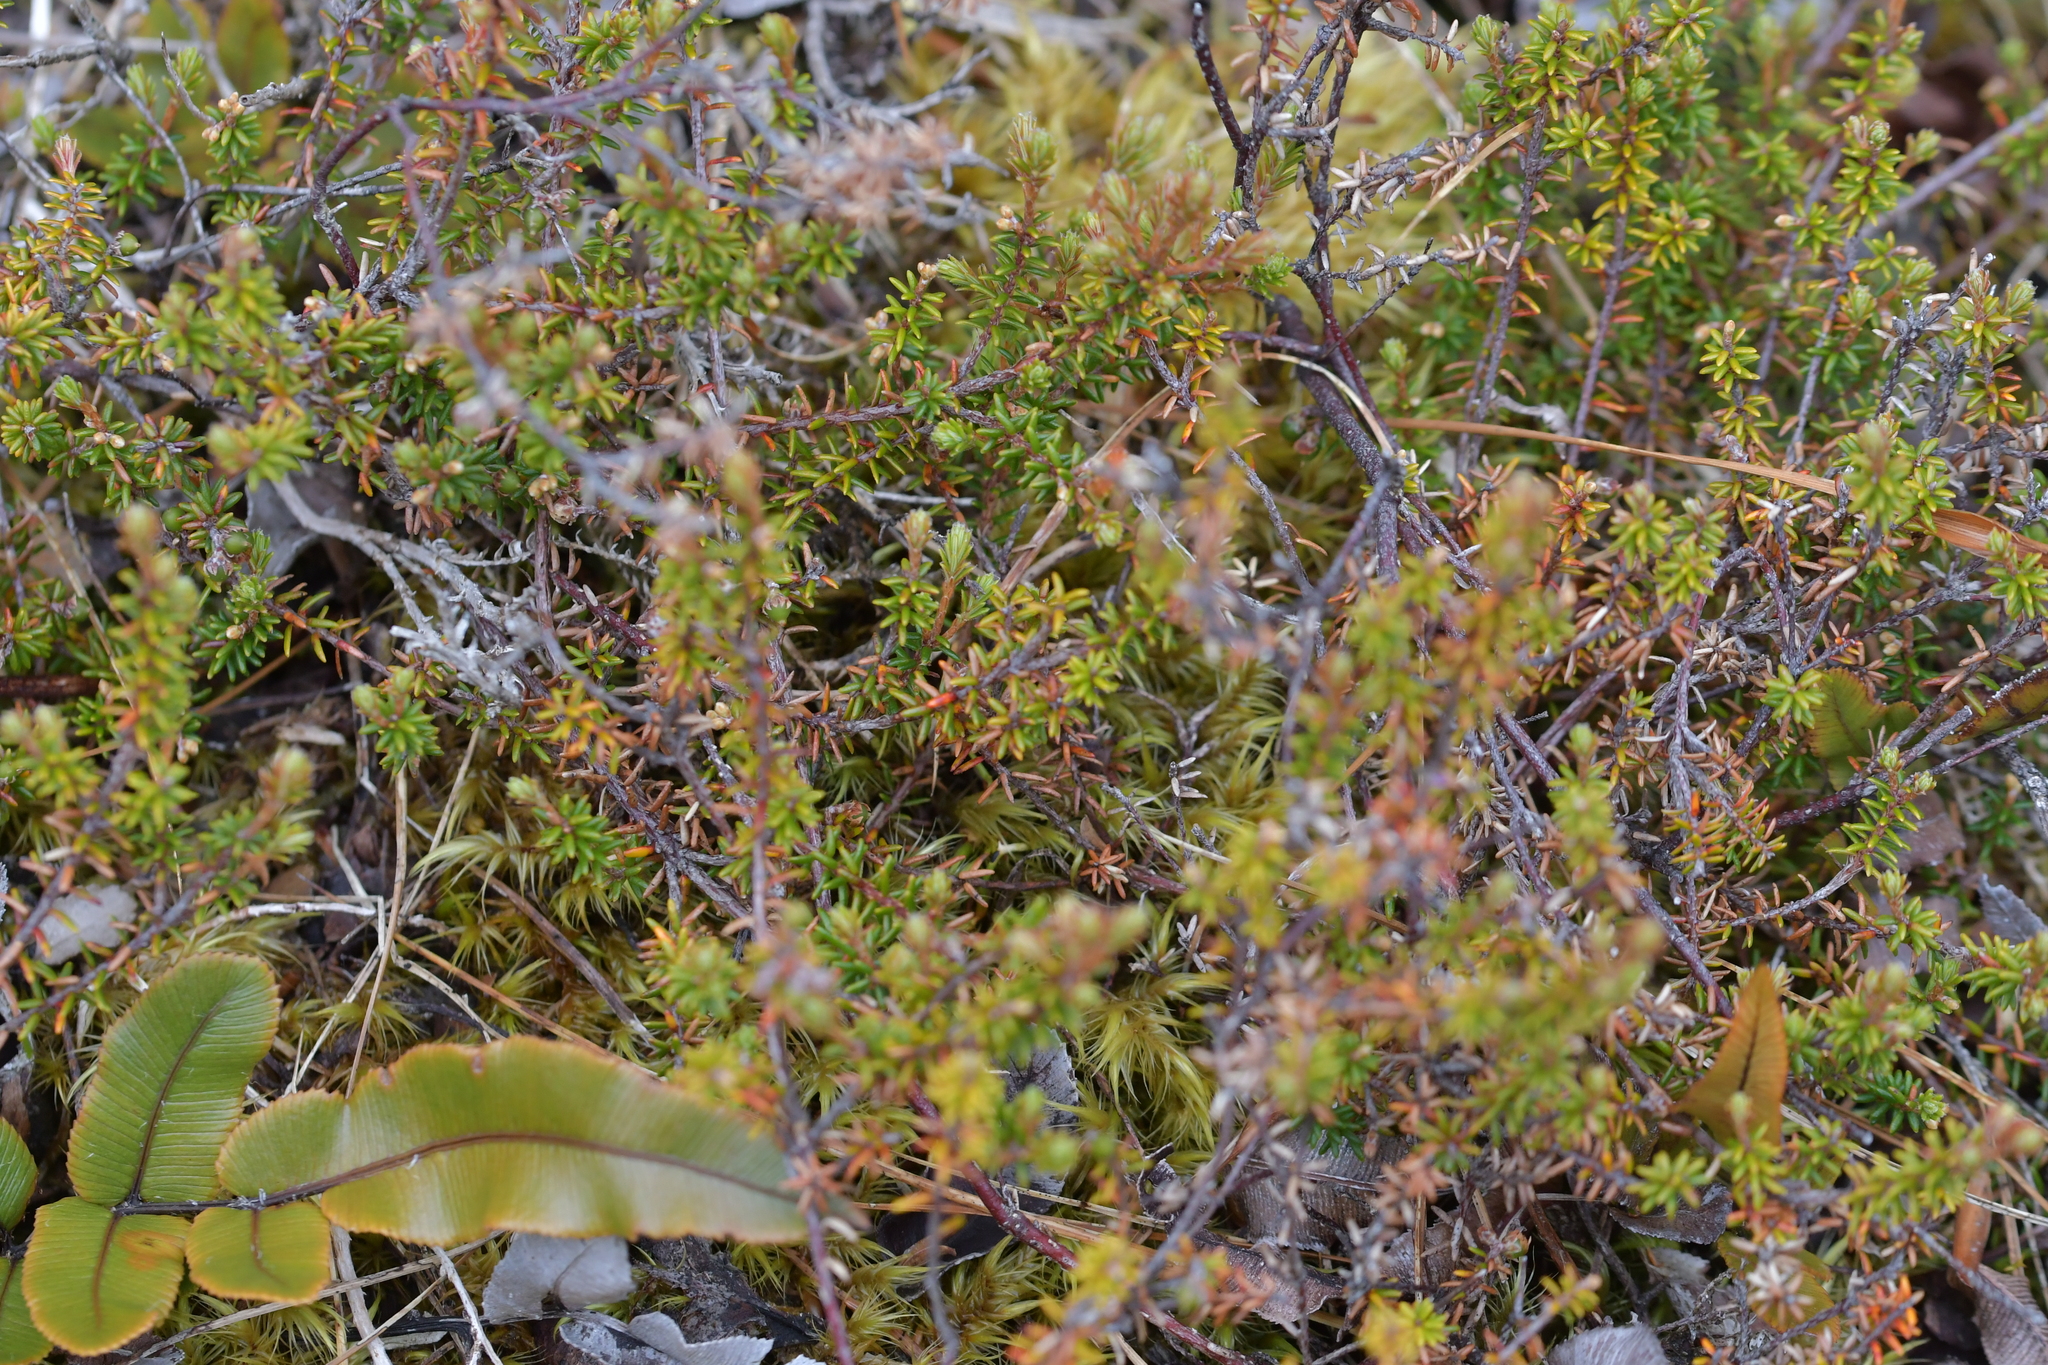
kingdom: Plantae
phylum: Tracheophyta
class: Magnoliopsida
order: Ericales
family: Ericaceae
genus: Androstoma
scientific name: Androstoma empetrifolia
